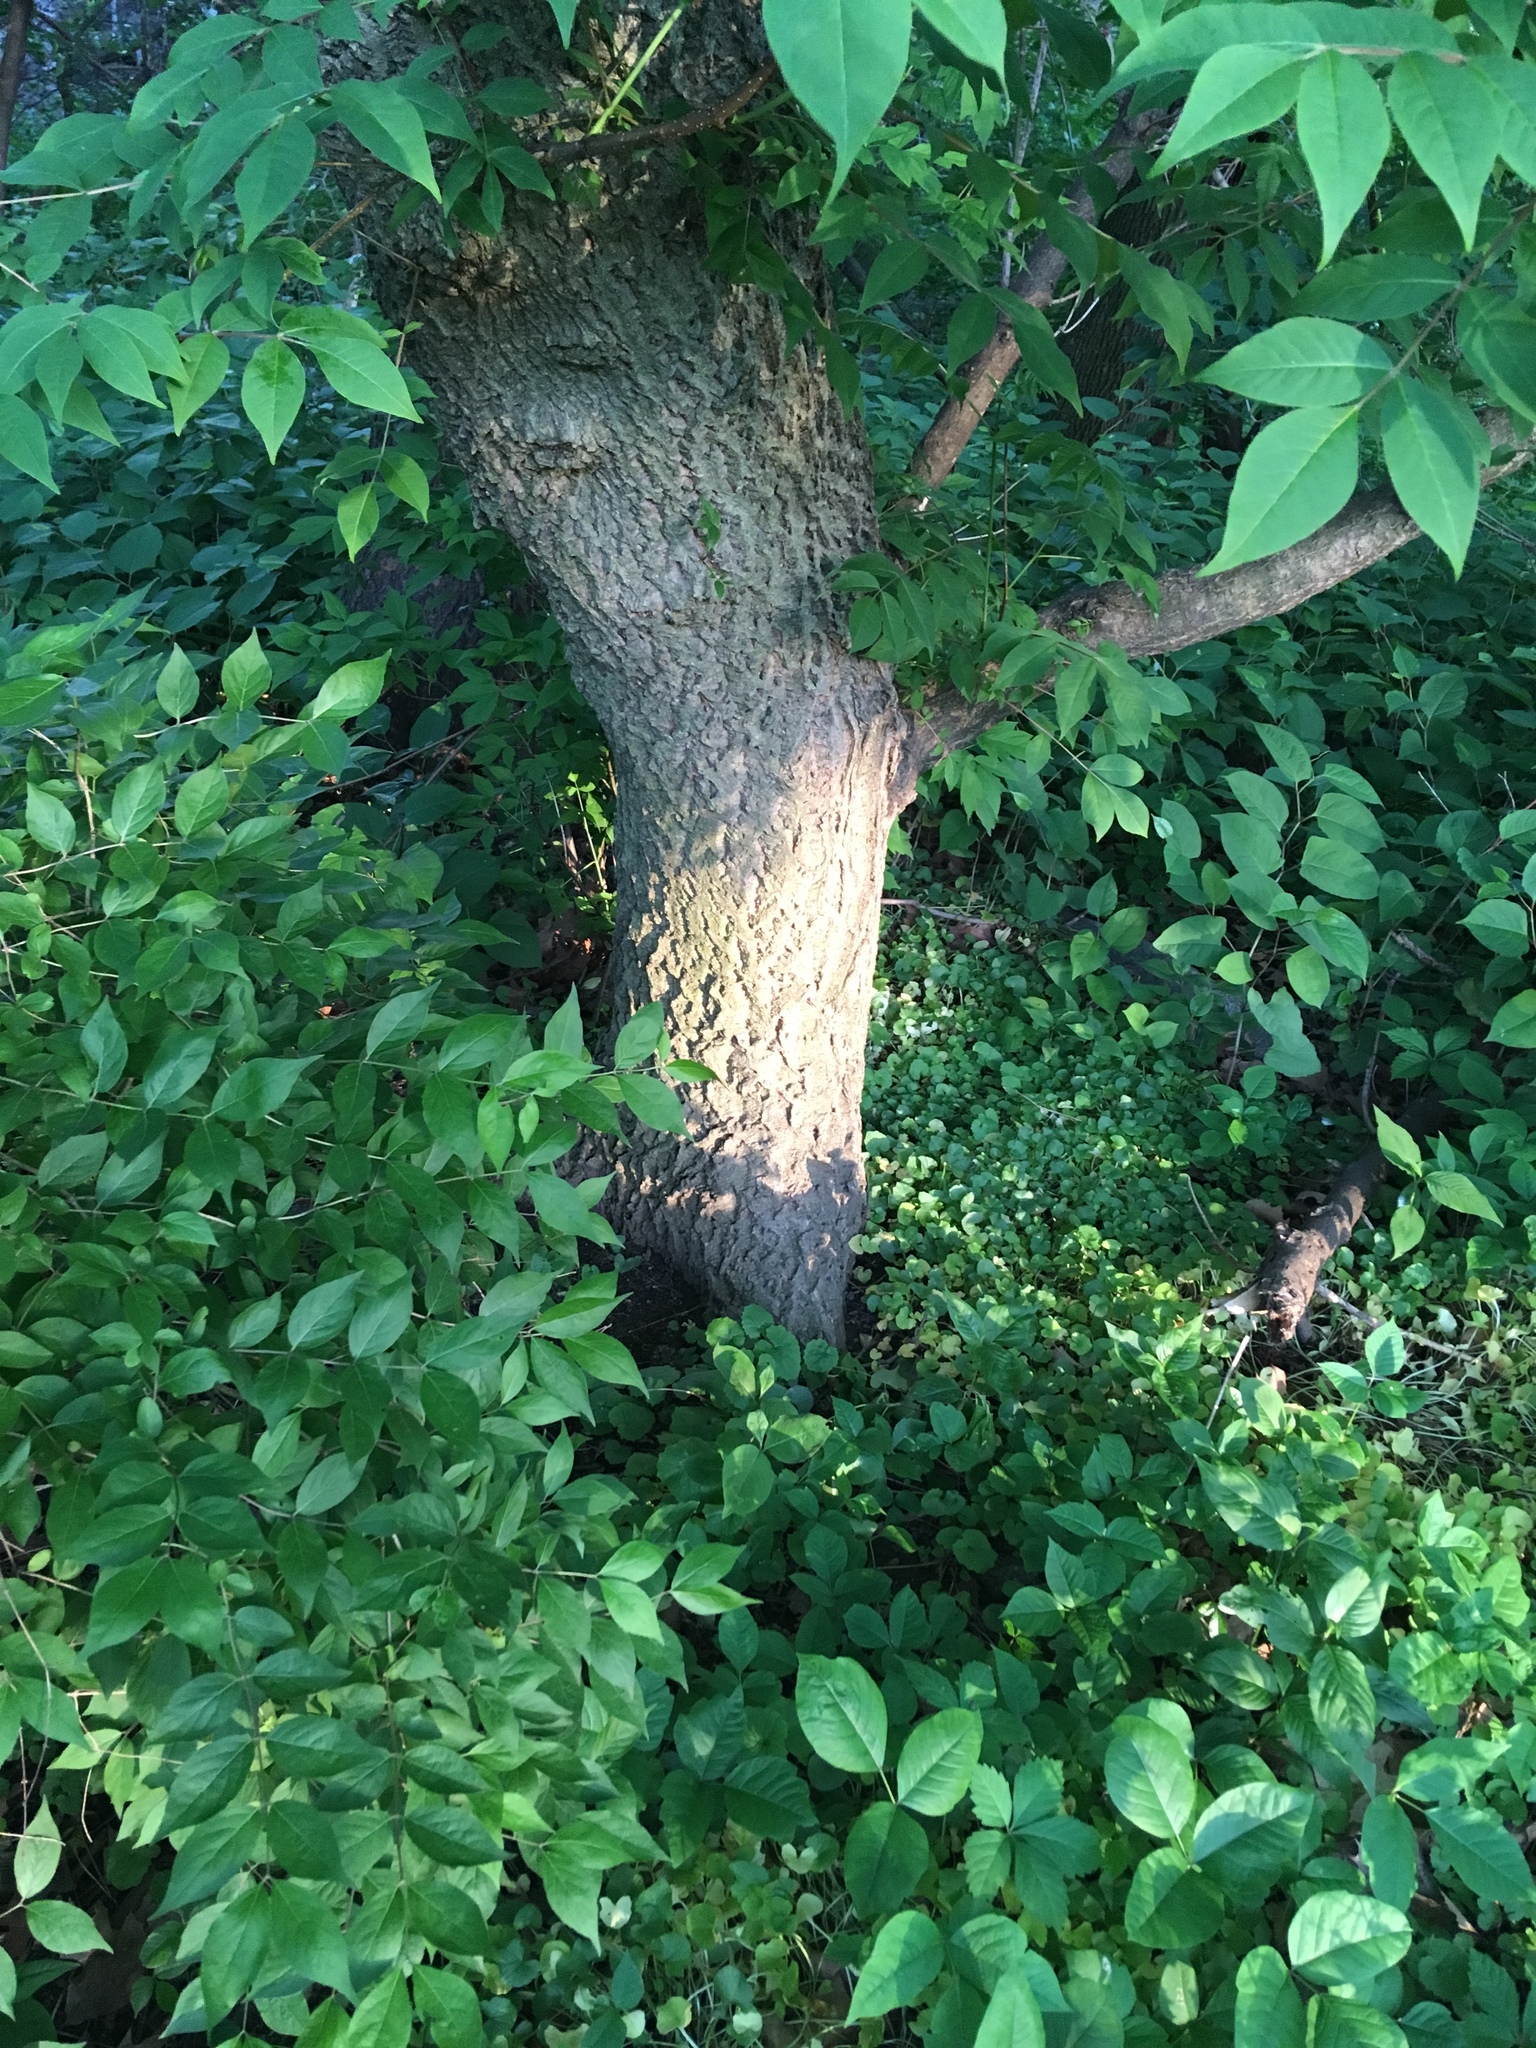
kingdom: Plantae
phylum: Tracheophyta
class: Magnoliopsida
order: Sapindales
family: Rutaceae
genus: Phellodendron
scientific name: Phellodendron amurense
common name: Amur corktree
